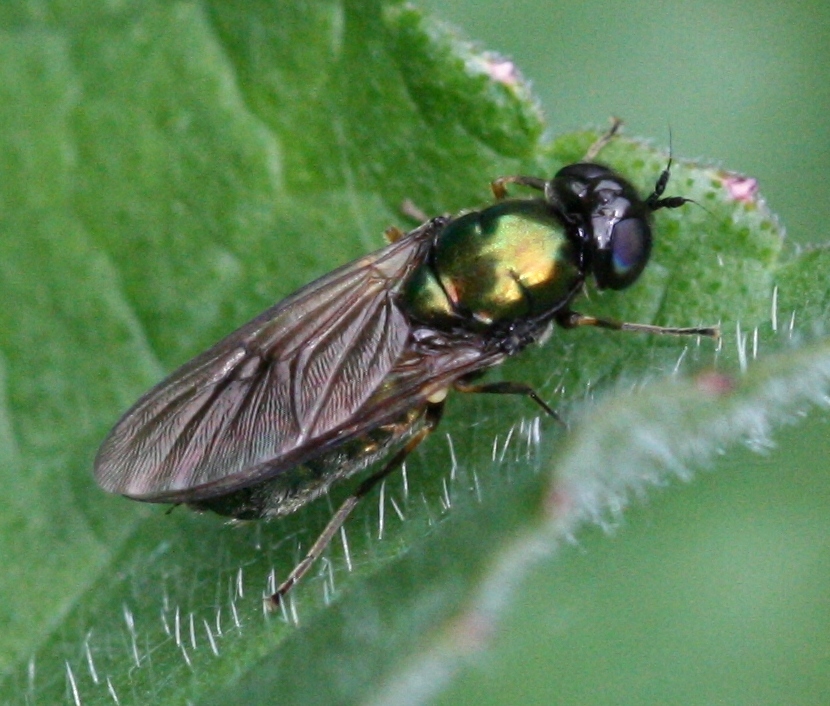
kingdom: Animalia
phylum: Arthropoda
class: Insecta
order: Diptera
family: Stratiomyidae
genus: Chloromyia
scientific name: Chloromyia formosa
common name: Soldier fly
